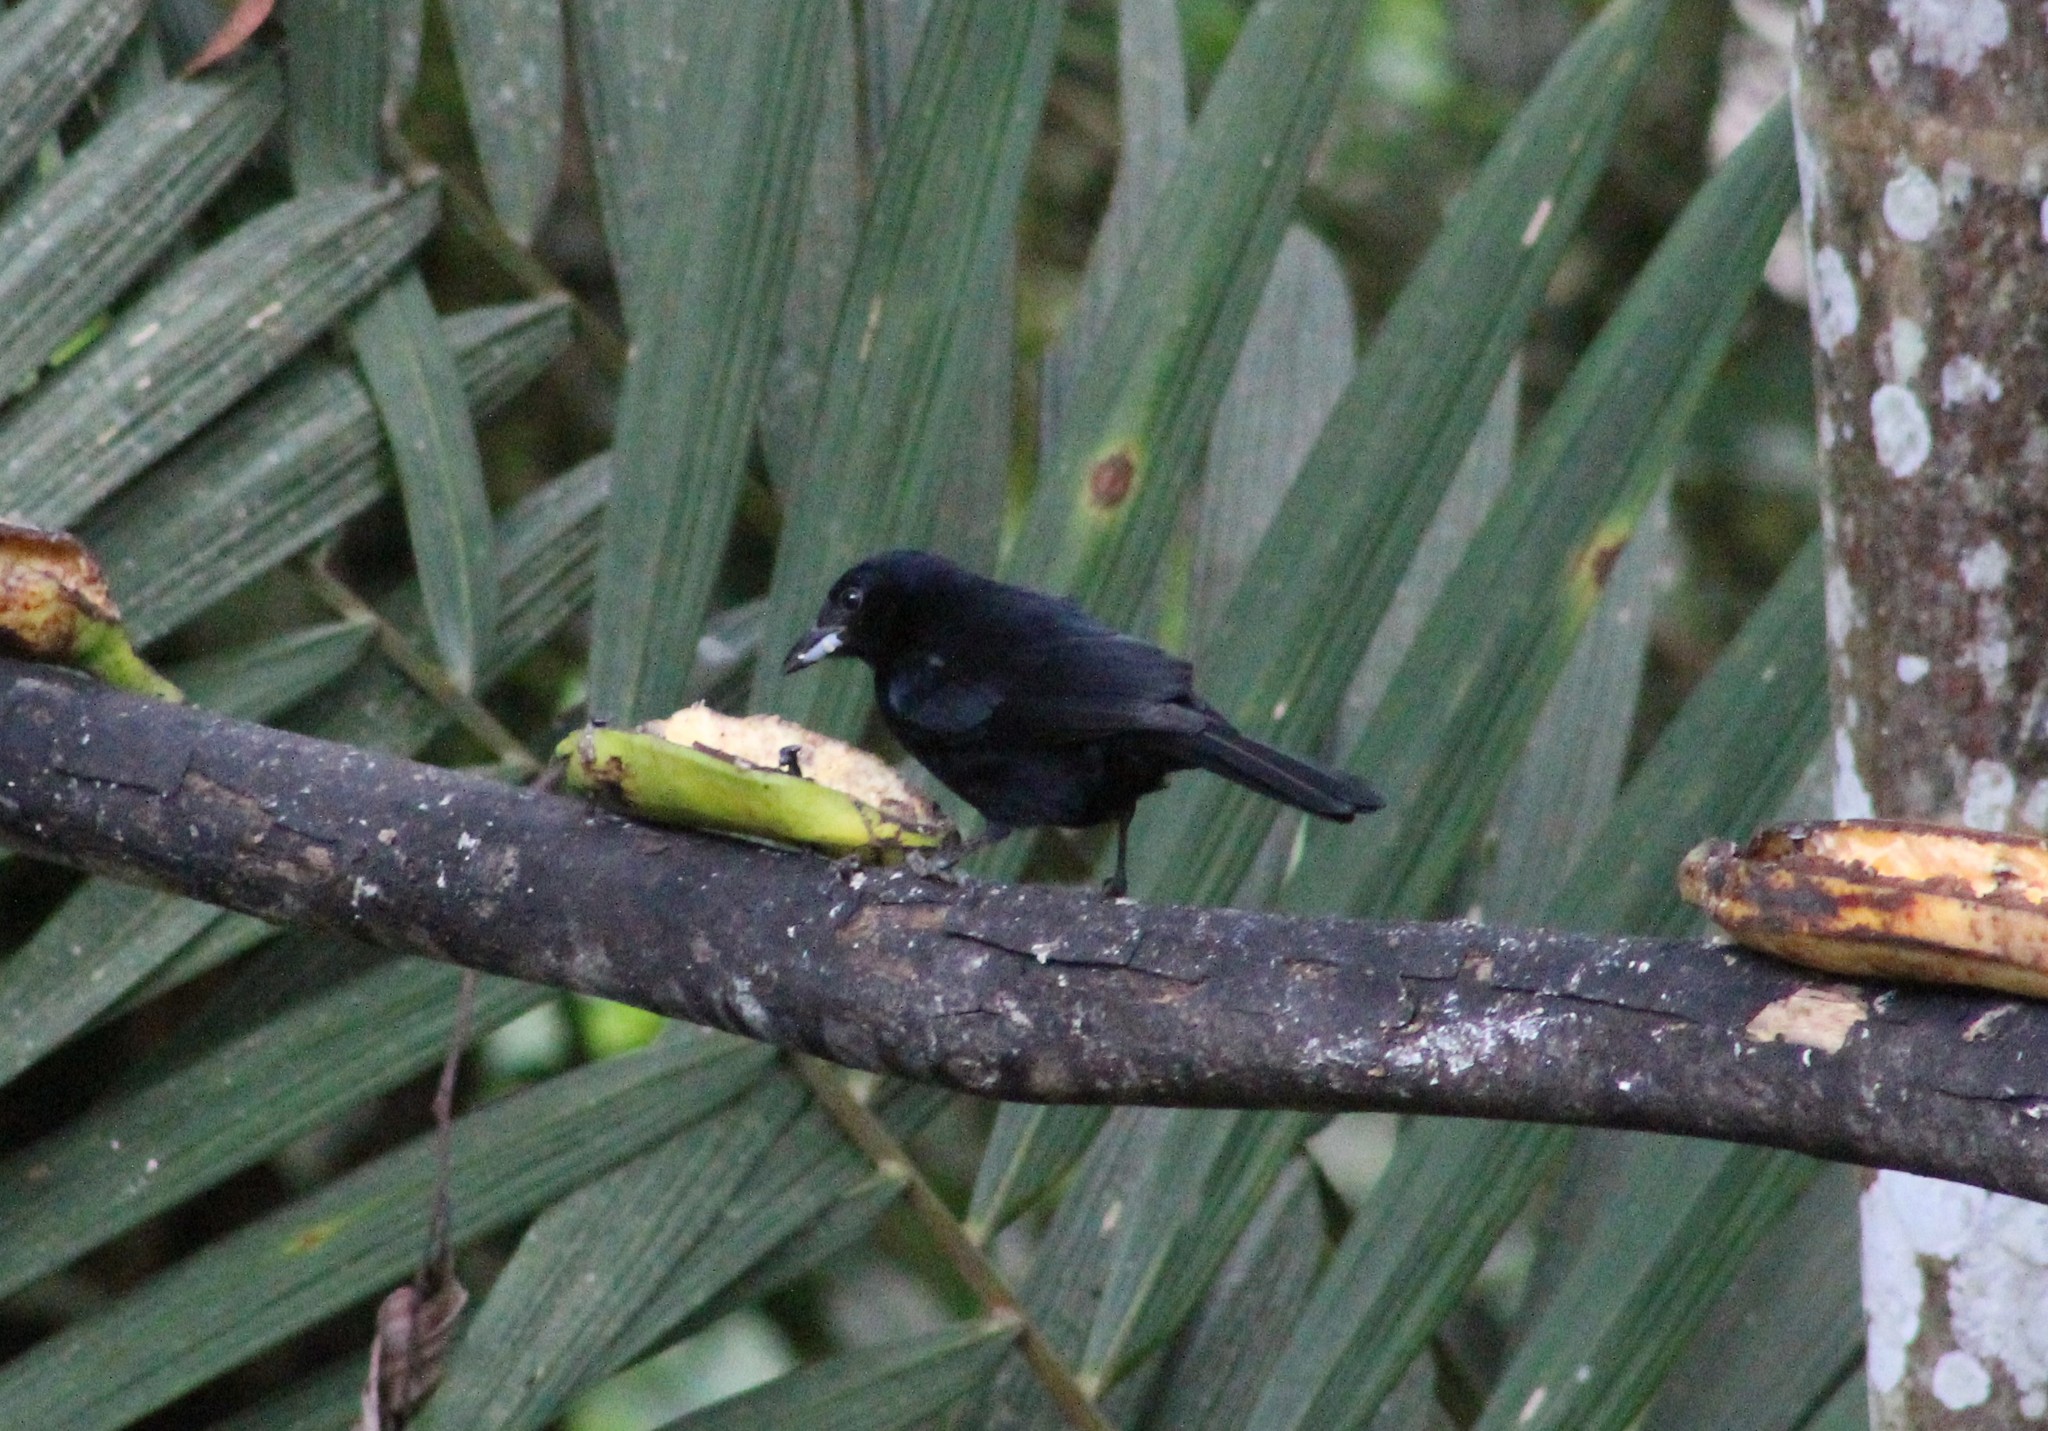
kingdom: Animalia
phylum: Chordata
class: Aves
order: Passeriformes
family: Thraupidae
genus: Tachyphonus
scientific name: Tachyphonus rufus
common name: White-lined tanager
